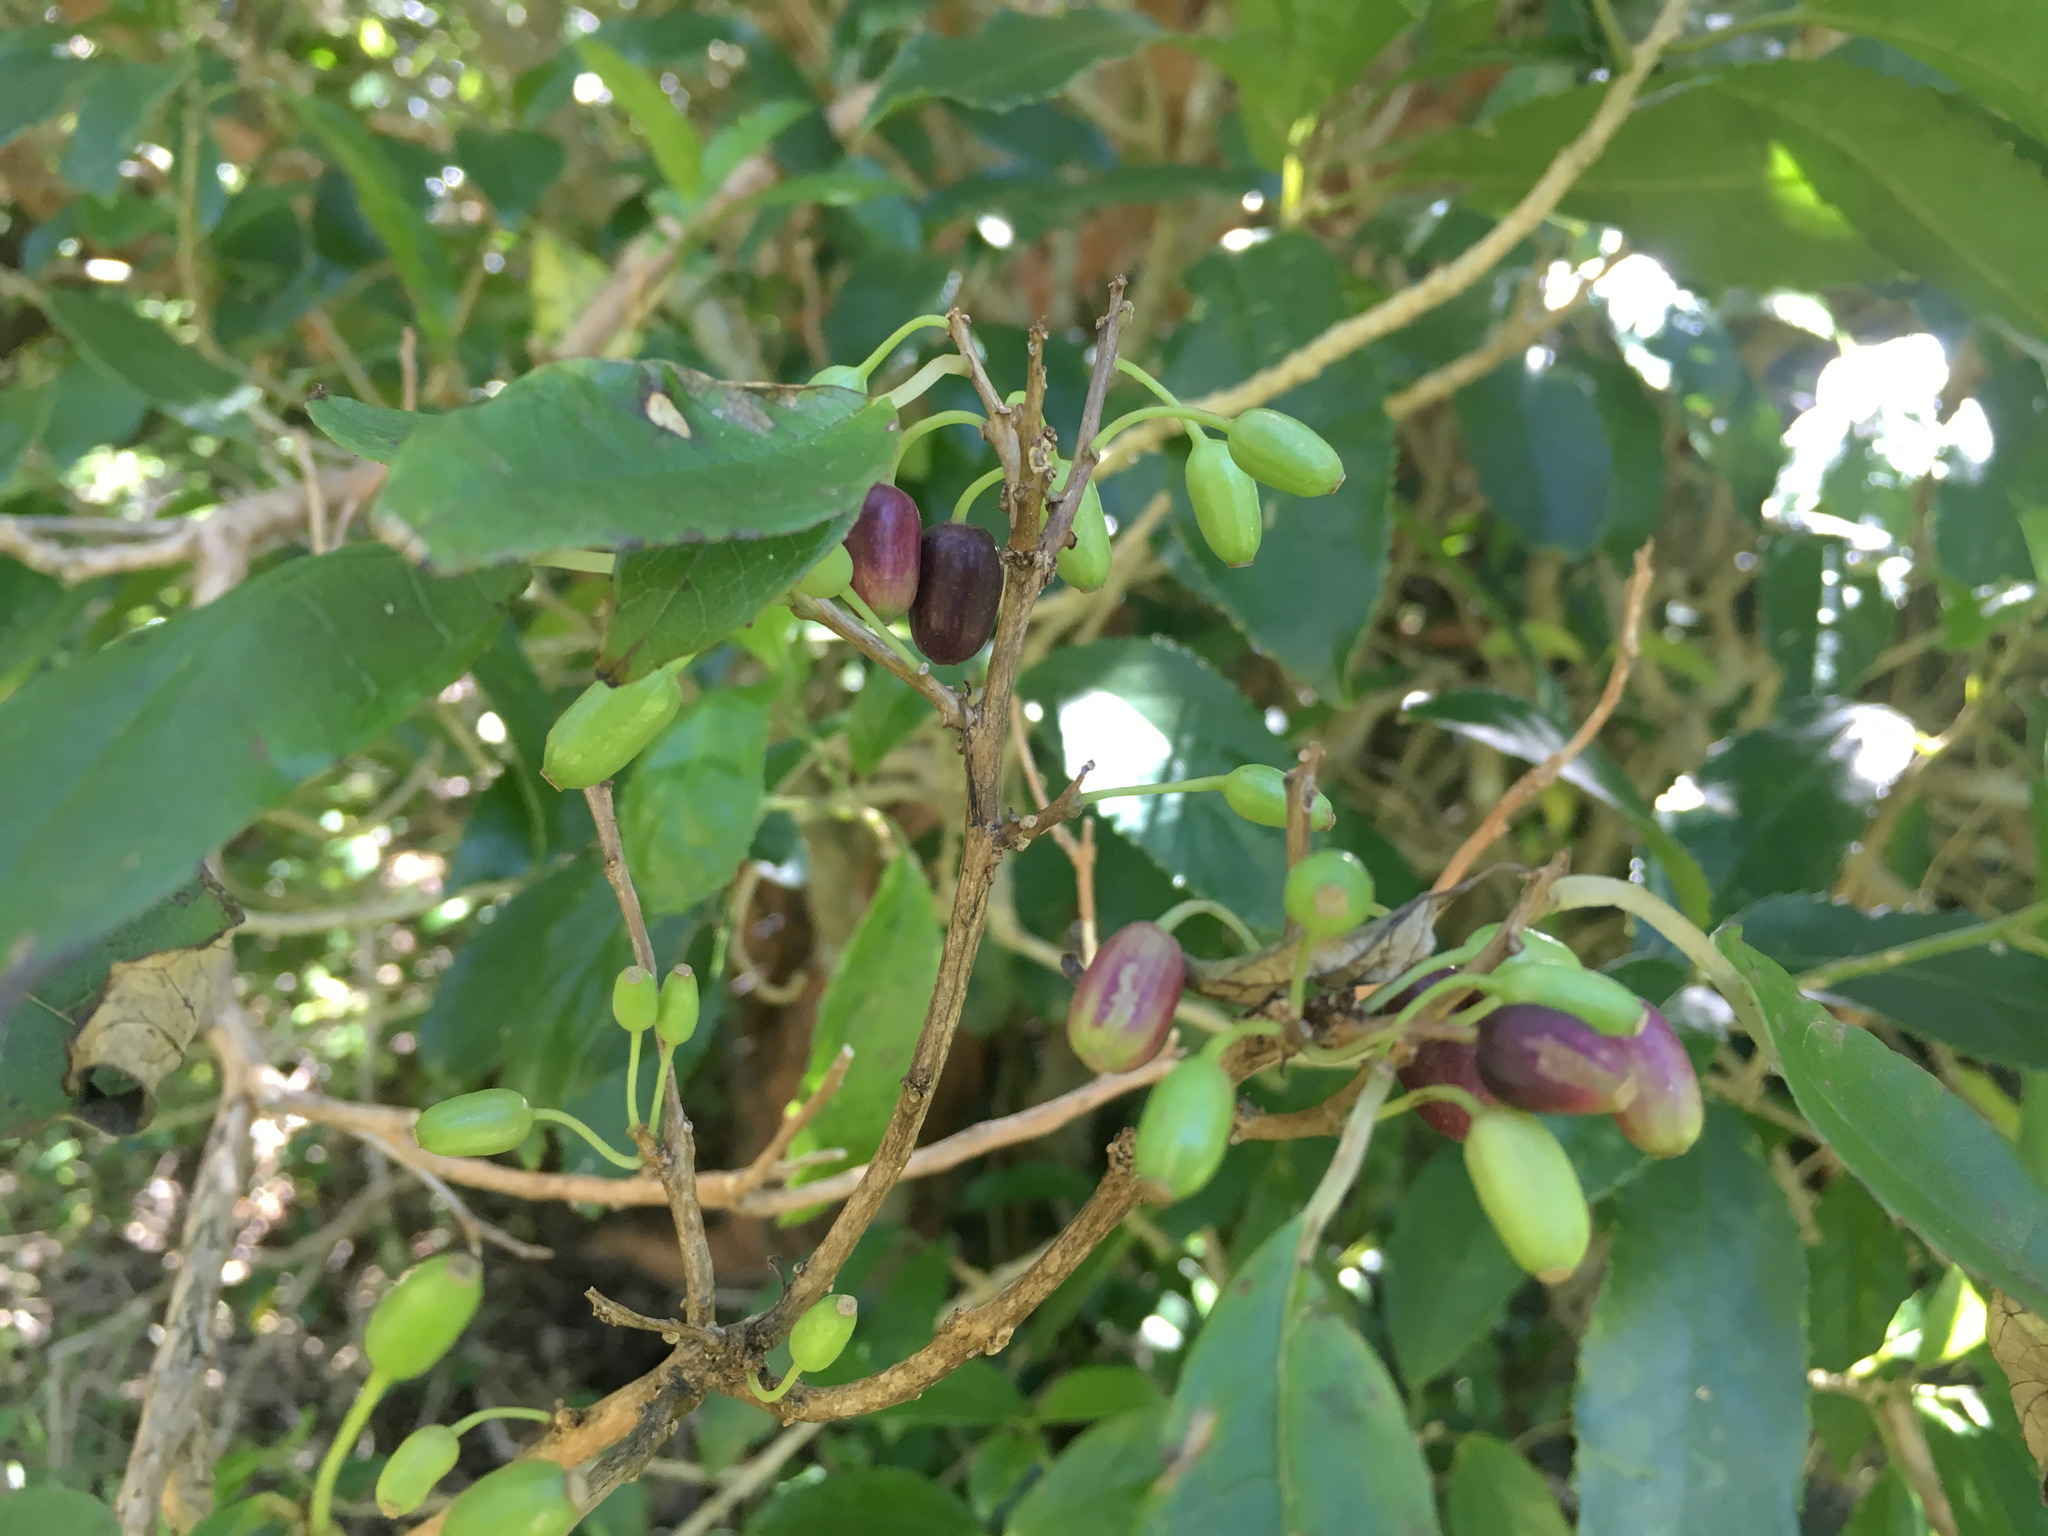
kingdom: Plantae
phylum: Tracheophyta
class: Magnoliopsida
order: Myrtales
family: Onagraceae
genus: Fuchsia
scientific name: Fuchsia excorticata
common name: Tree fuchsia
